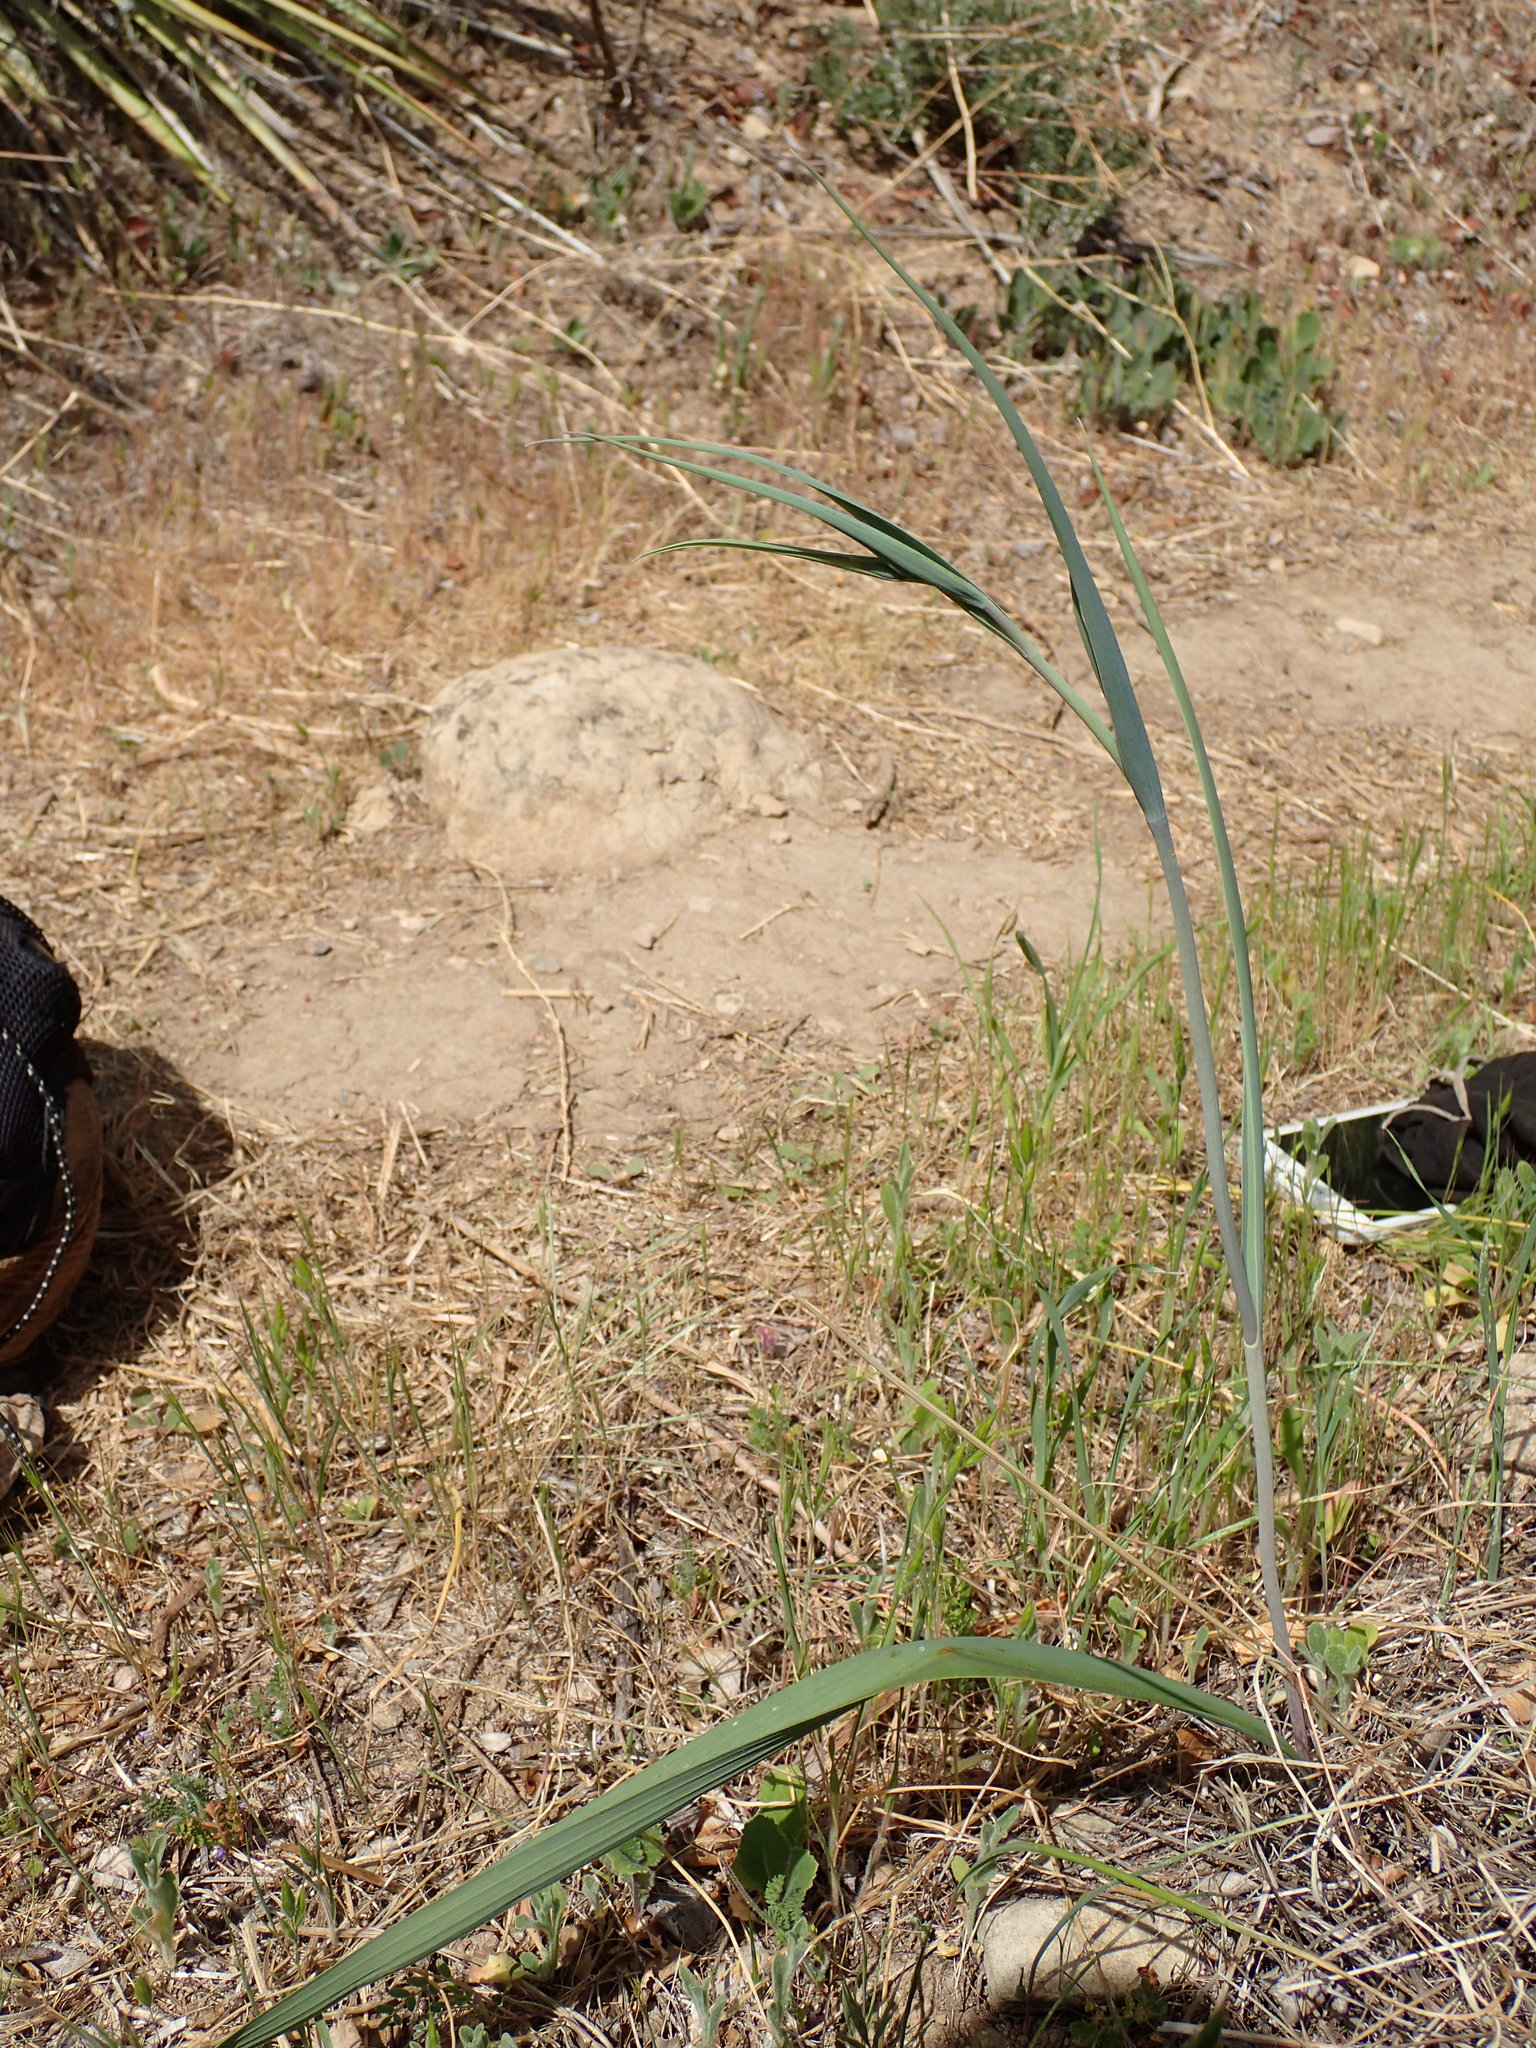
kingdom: Plantae
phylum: Tracheophyta
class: Liliopsida
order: Liliales
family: Liliaceae
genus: Calochortus
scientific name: Calochortus albus
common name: Fairy-lantern
